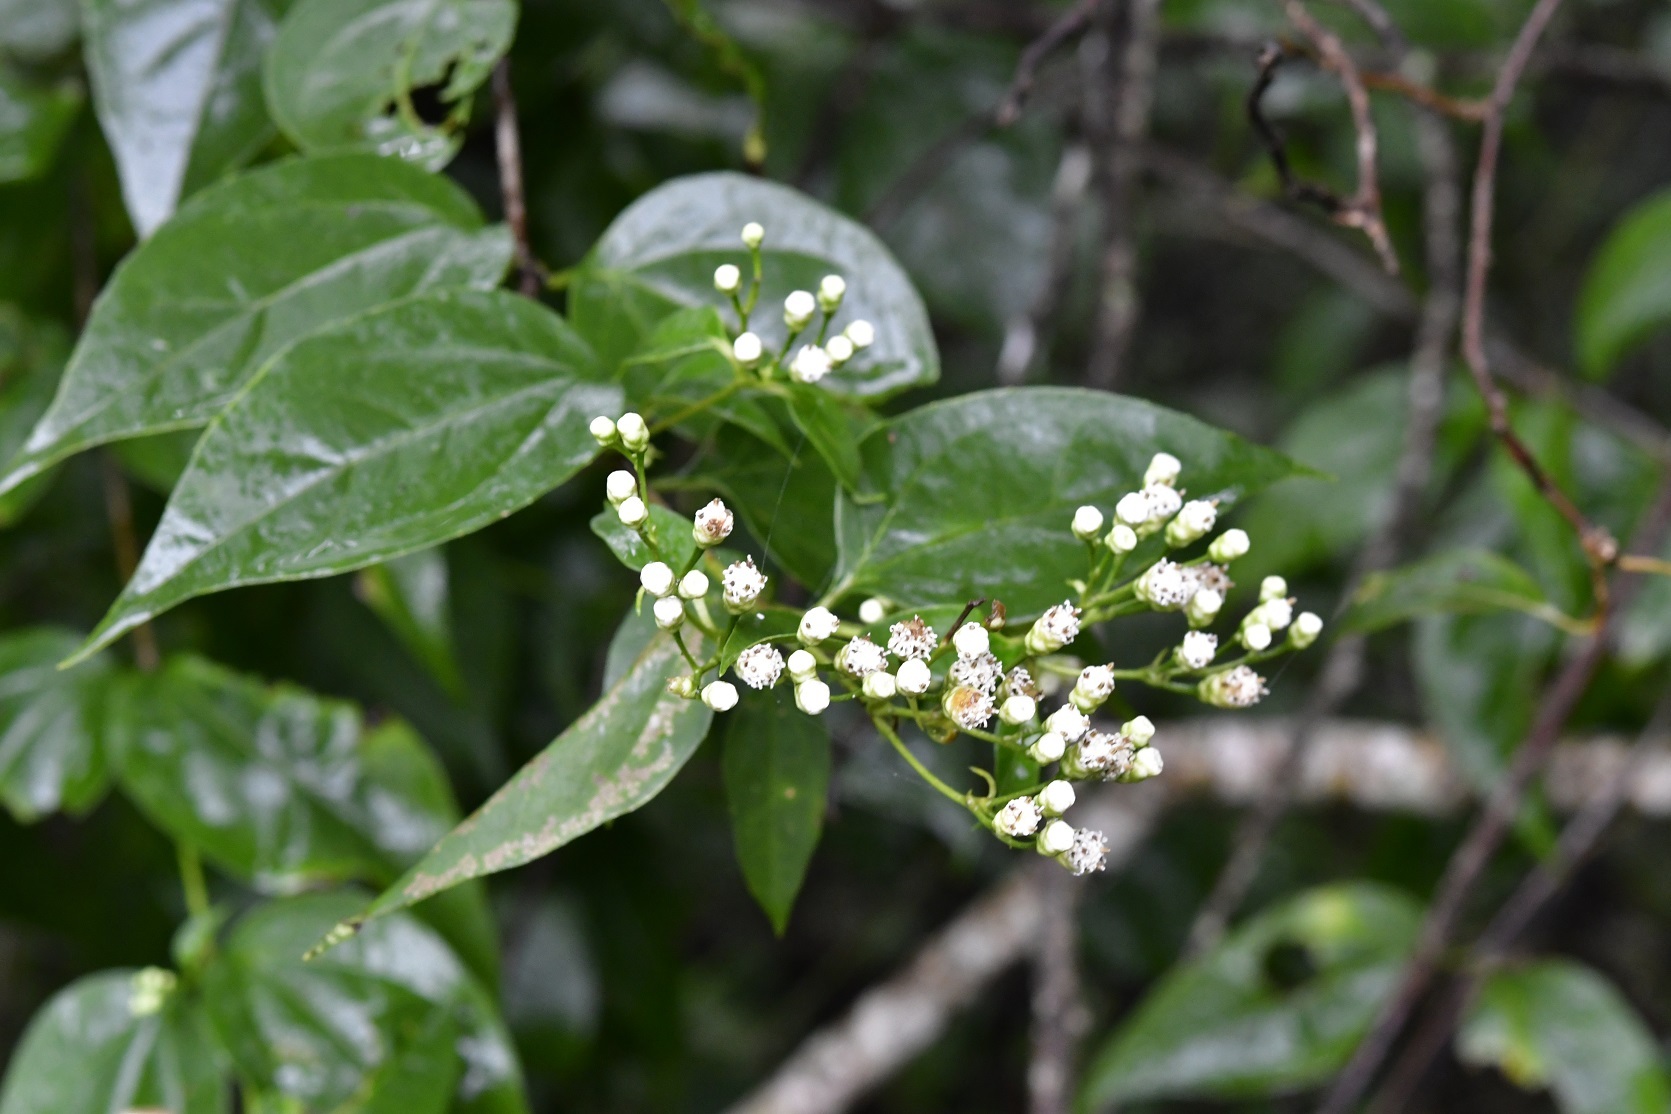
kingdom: Plantae
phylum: Tracheophyta
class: Magnoliopsida
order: Asterales
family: Asteraceae
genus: Salmea
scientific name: Salmea scandens
